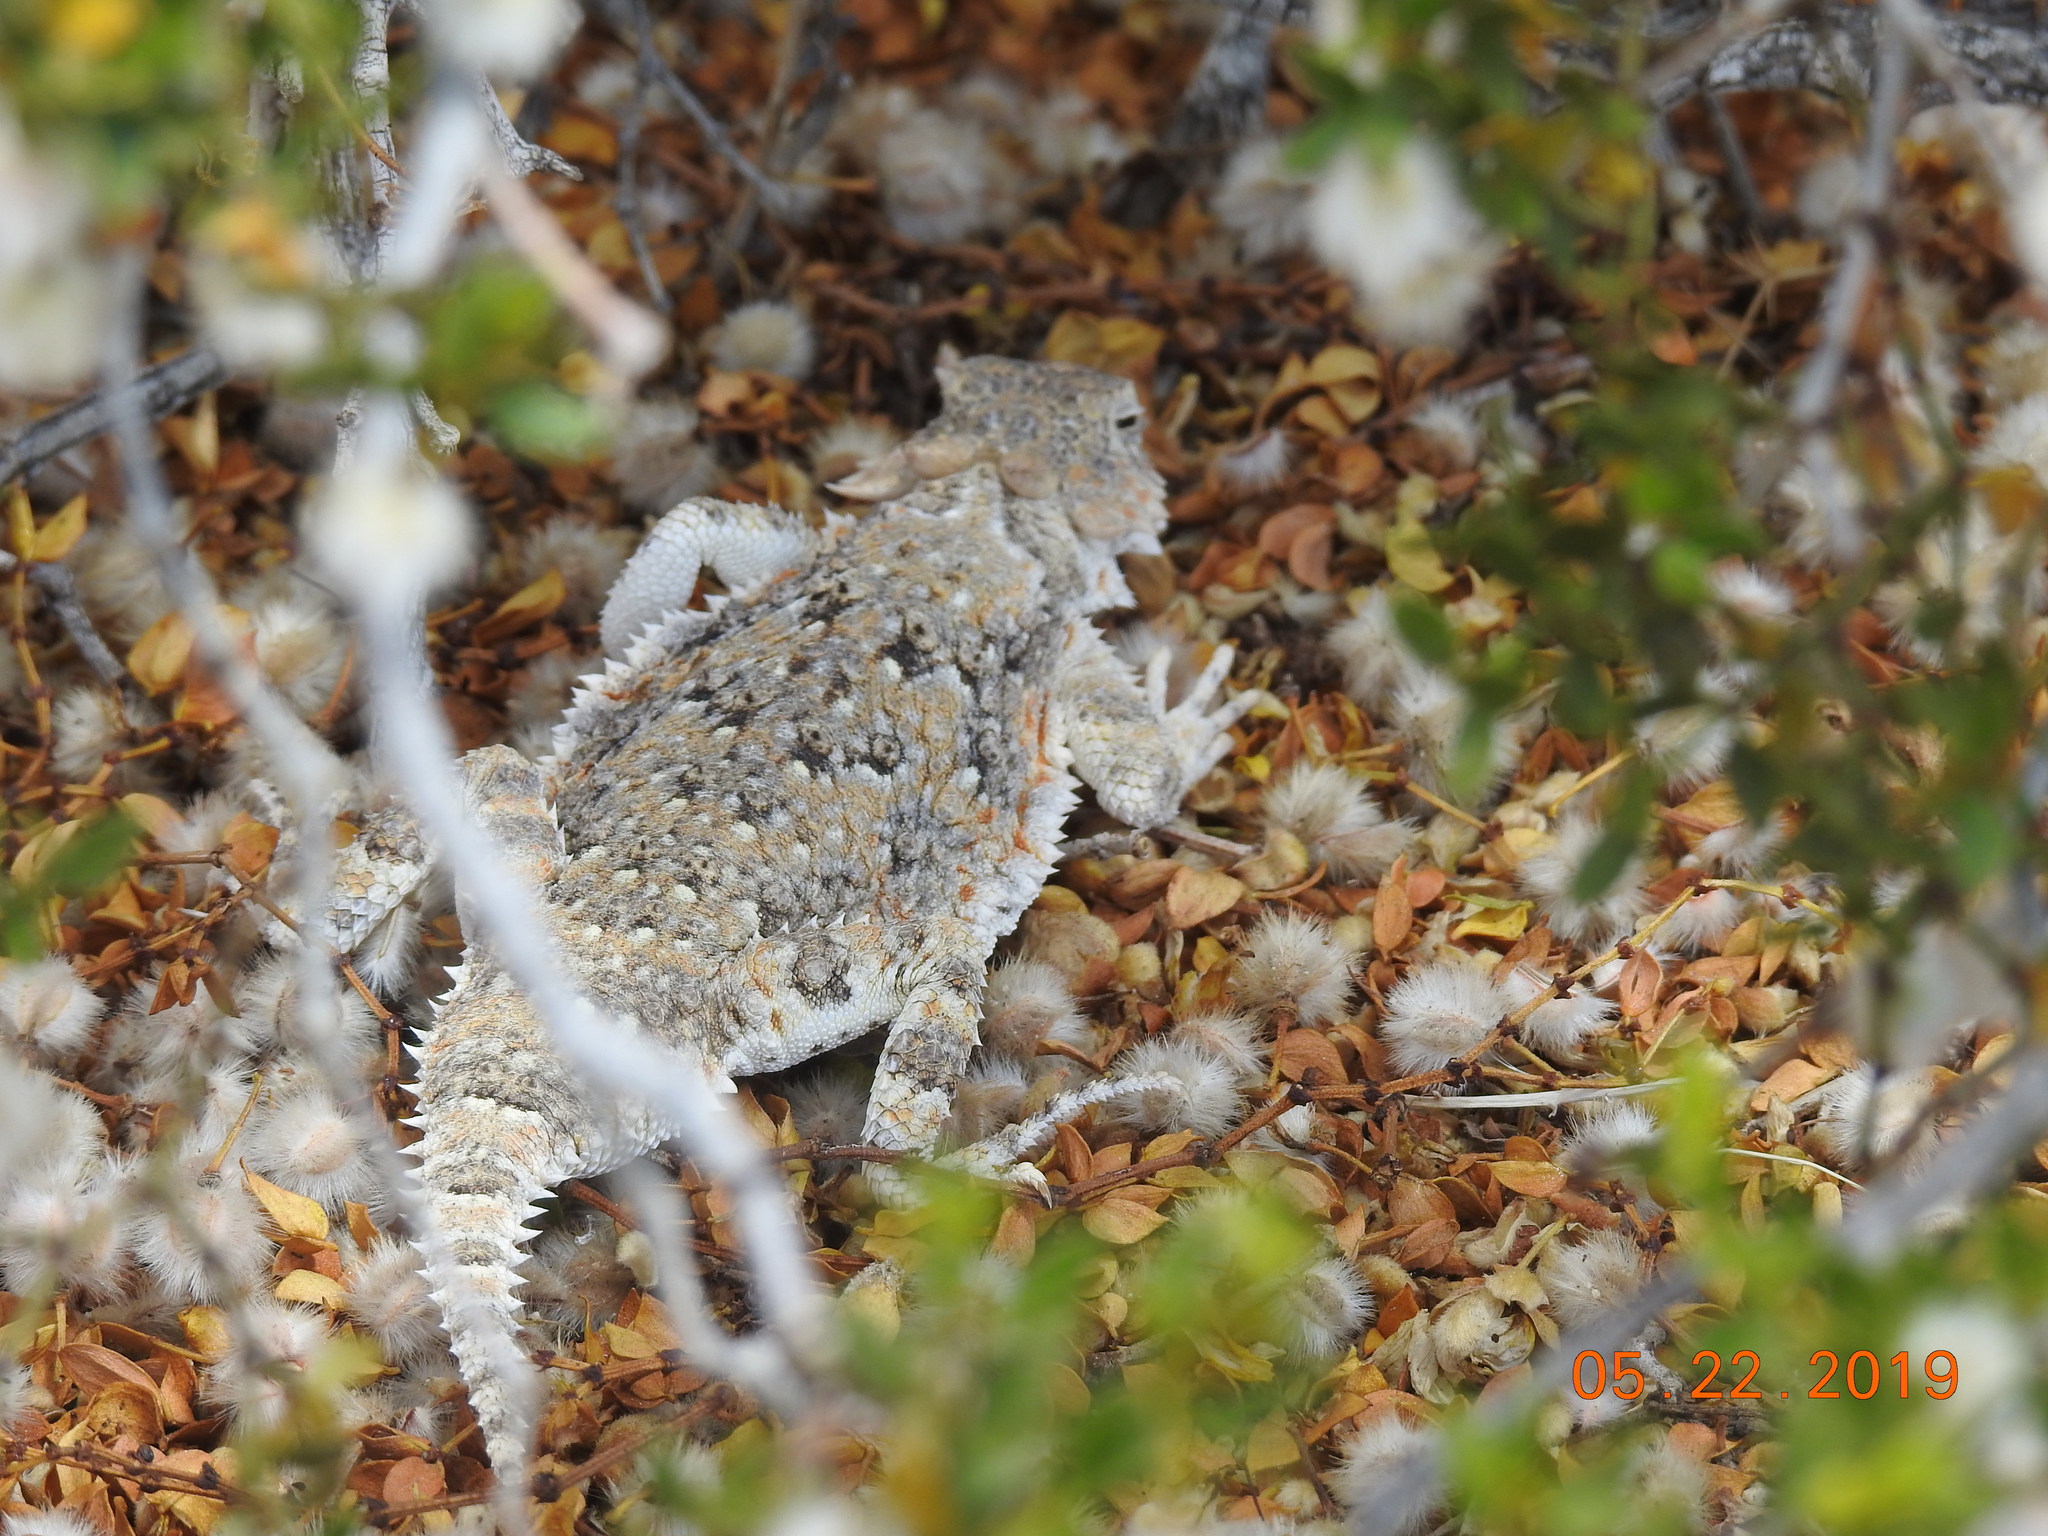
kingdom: Animalia
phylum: Chordata
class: Squamata
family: Phrynosomatidae
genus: Phrynosoma
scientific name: Phrynosoma platyrhinos
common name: Desert horned lizard
